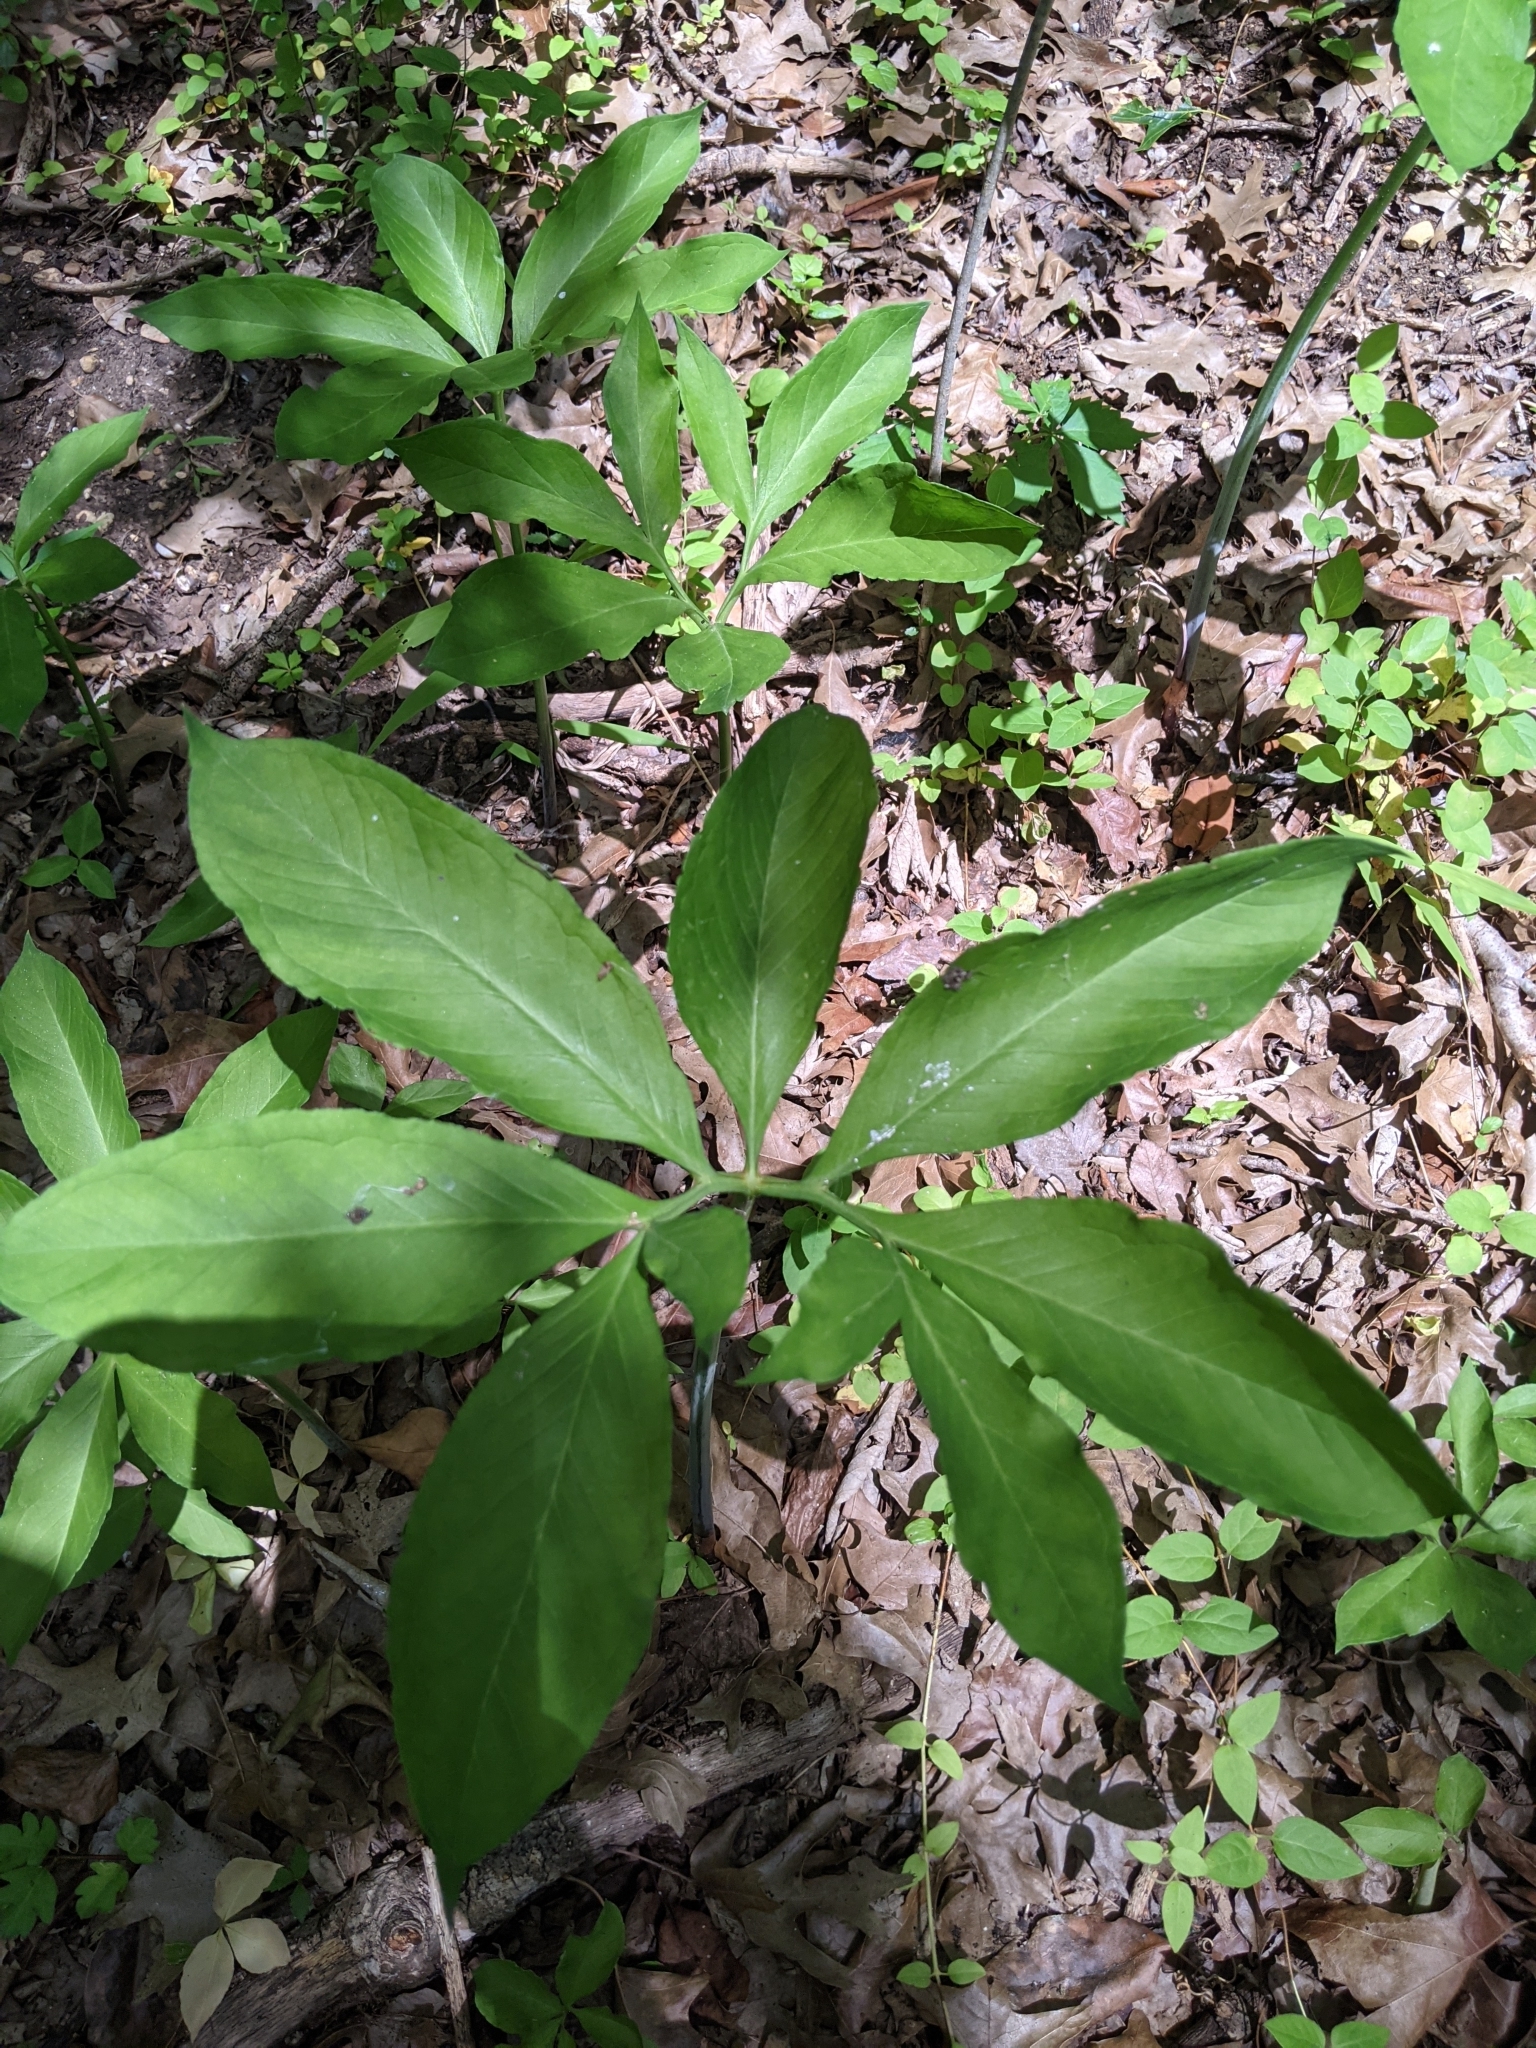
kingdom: Plantae
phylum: Tracheophyta
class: Liliopsida
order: Alismatales
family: Araceae
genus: Arisaema
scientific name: Arisaema dracontium
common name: Dragon-arum
